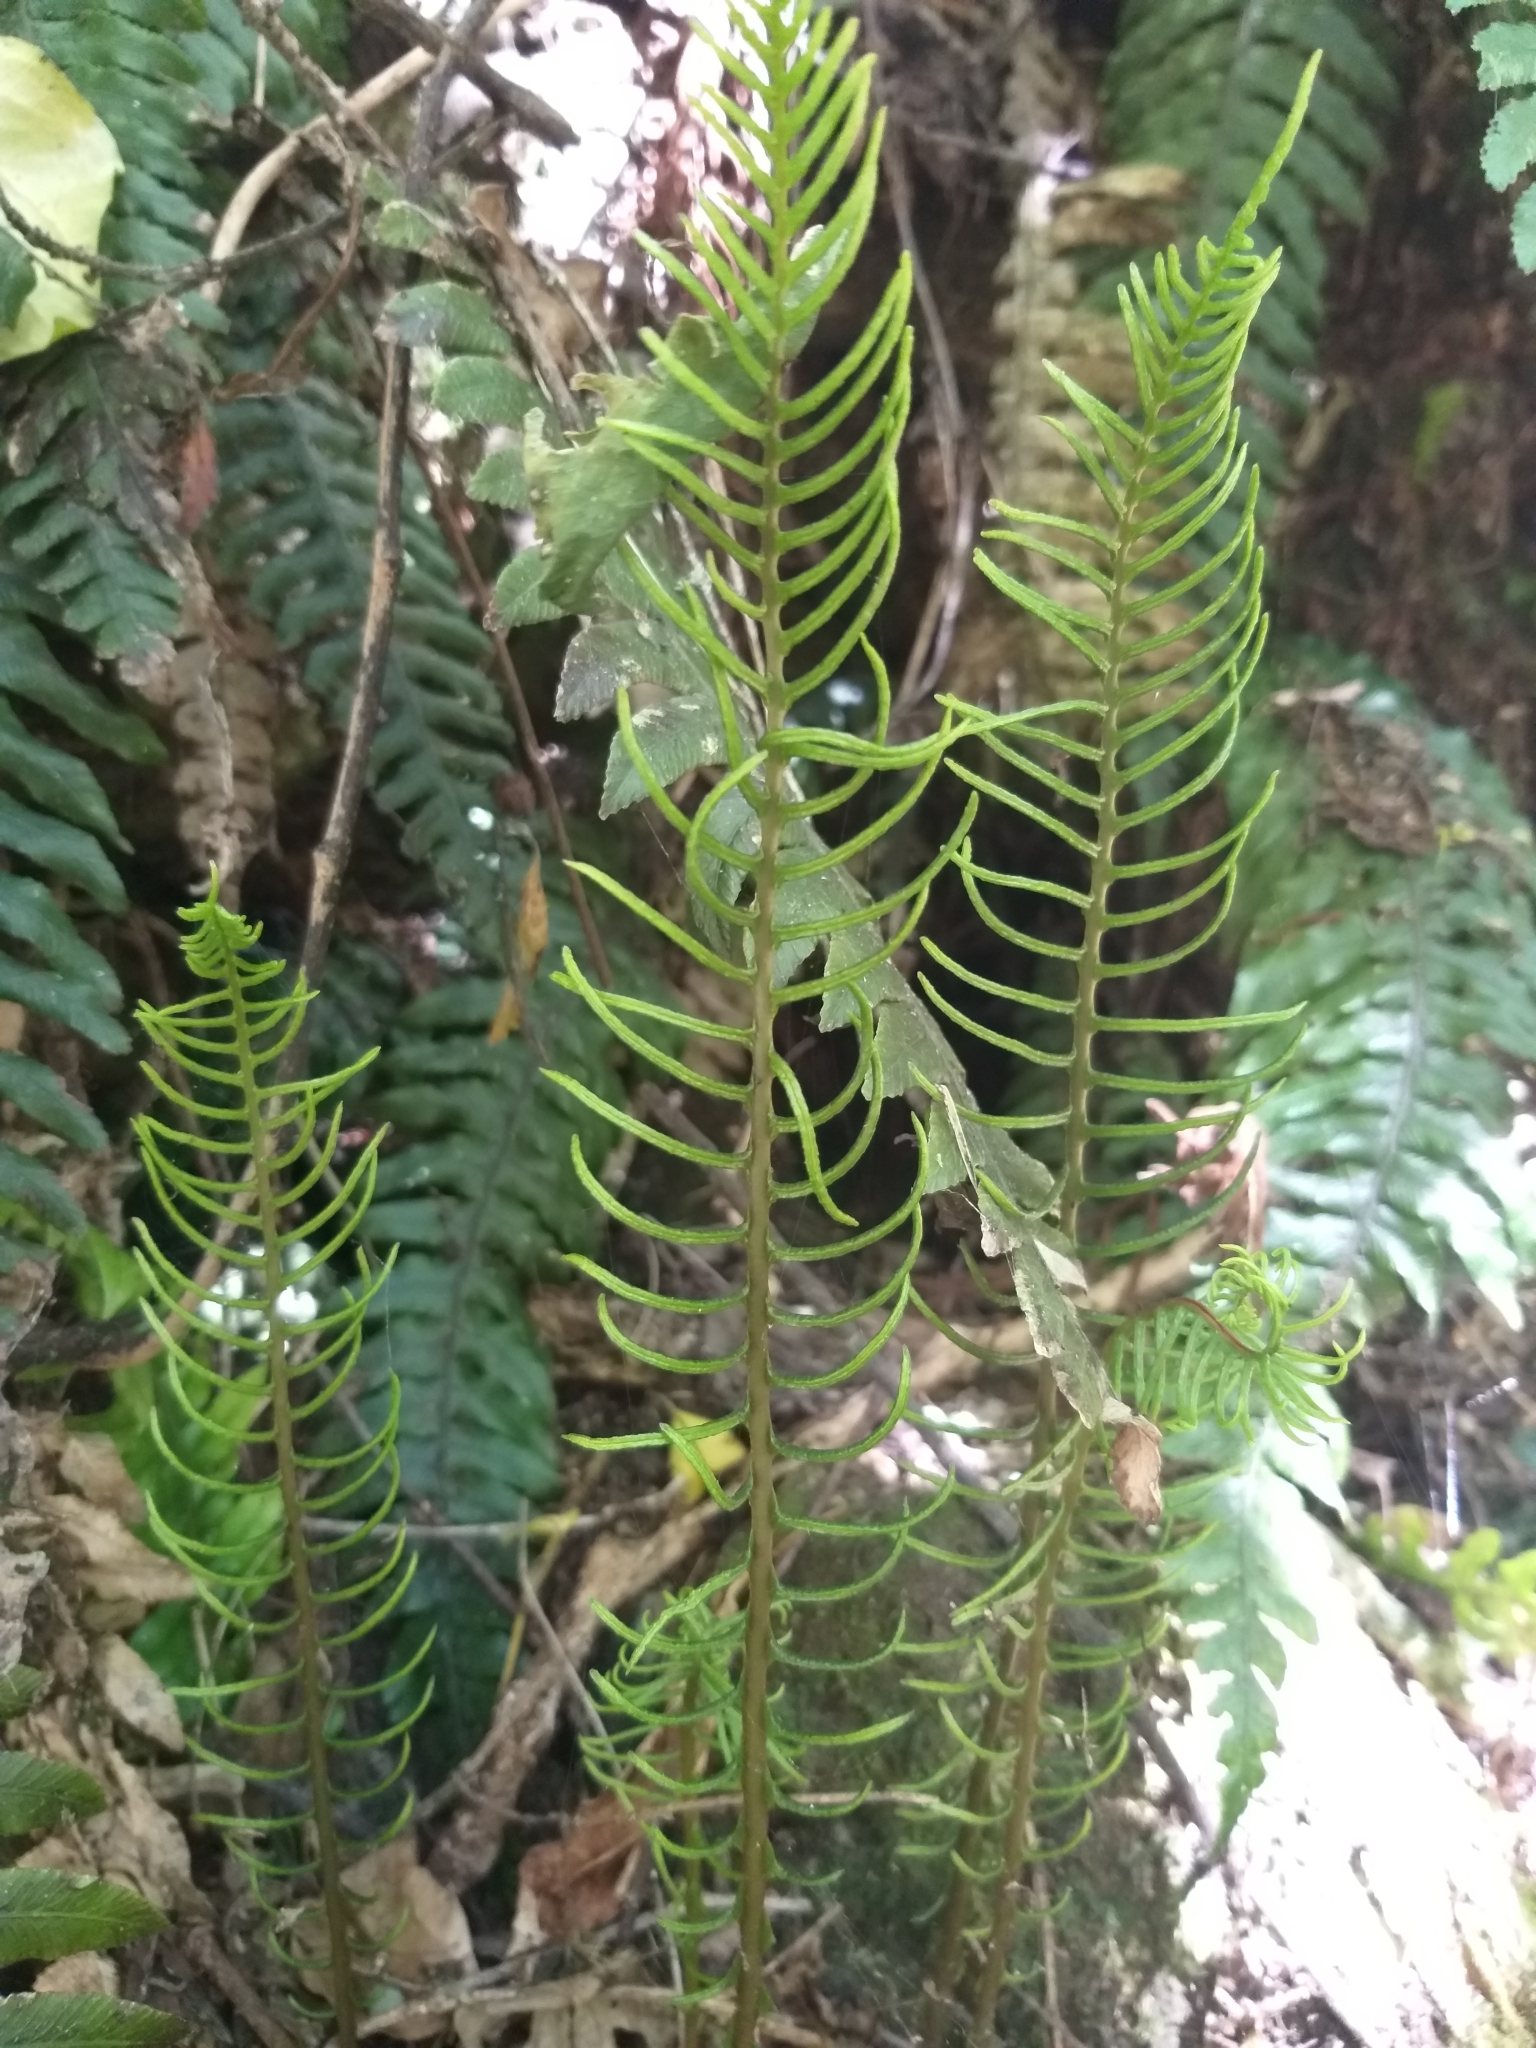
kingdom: Plantae
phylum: Tracheophyta
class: Polypodiopsida
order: Polypodiales
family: Blechnaceae
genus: Austroblechnum
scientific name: Austroblechnum lanceolatum
